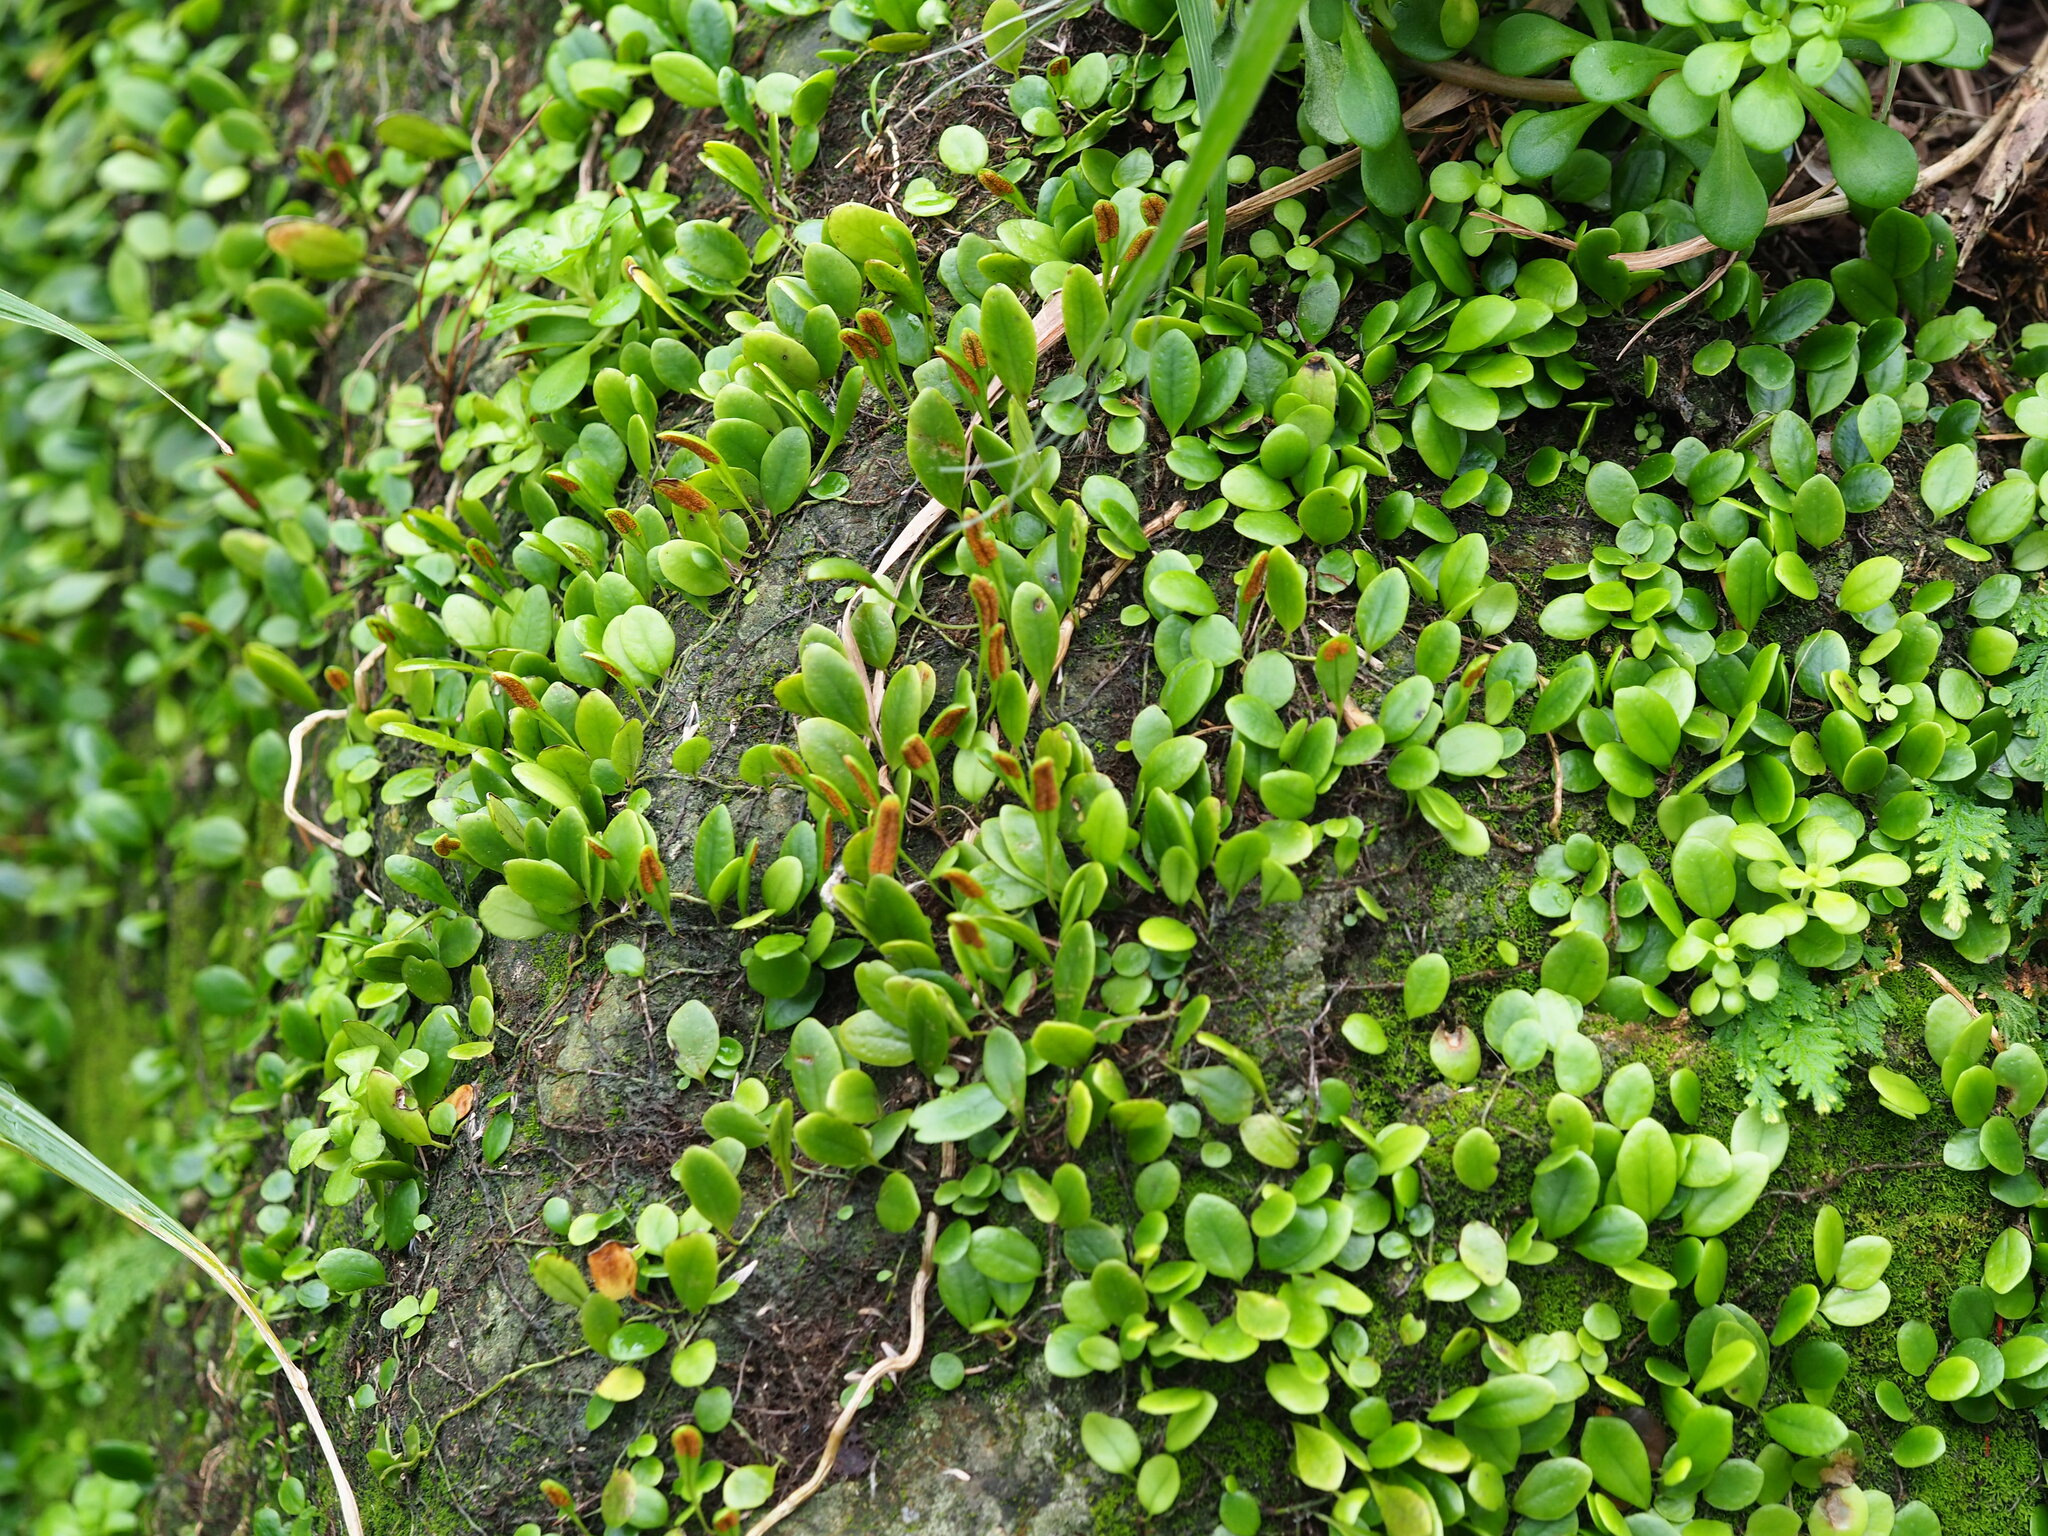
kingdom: Plantae
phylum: Tracheophyta
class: Polypodiopsida
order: Polypodiales
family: Polypodiaceae
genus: Lepisorus
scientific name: Lepisorus microphyllus
